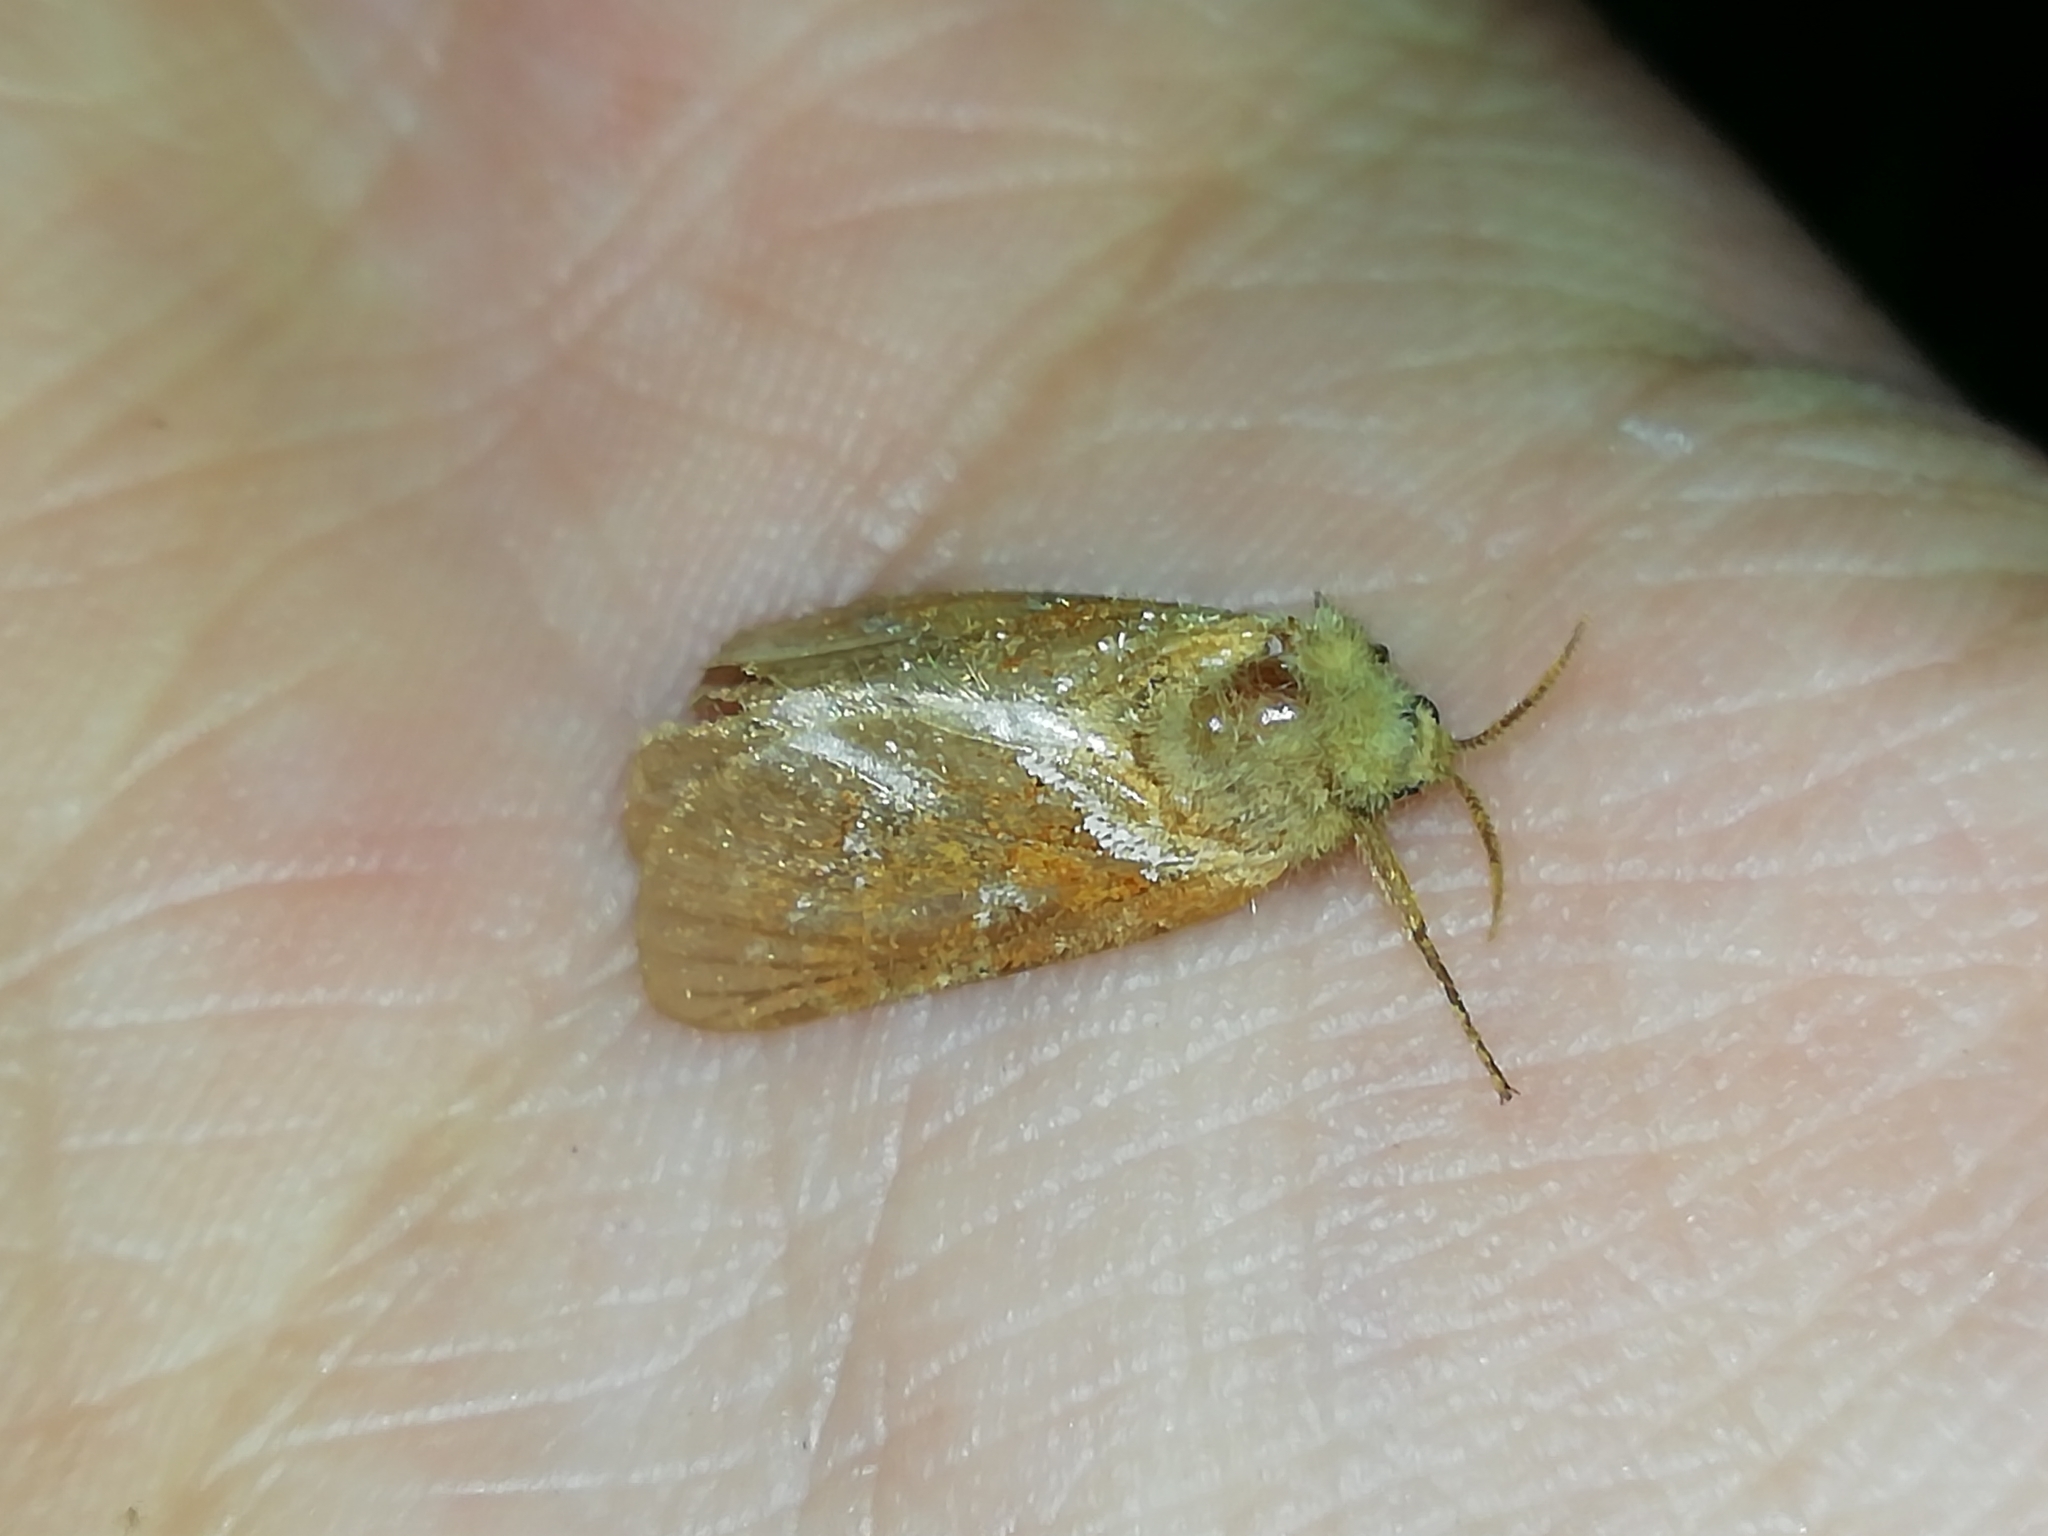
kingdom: Animalia
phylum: Arthropoda
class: Insecta
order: Lepidoptera
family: Hepialidae
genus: Triodia
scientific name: Triodia sylvina
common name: Orange swift
